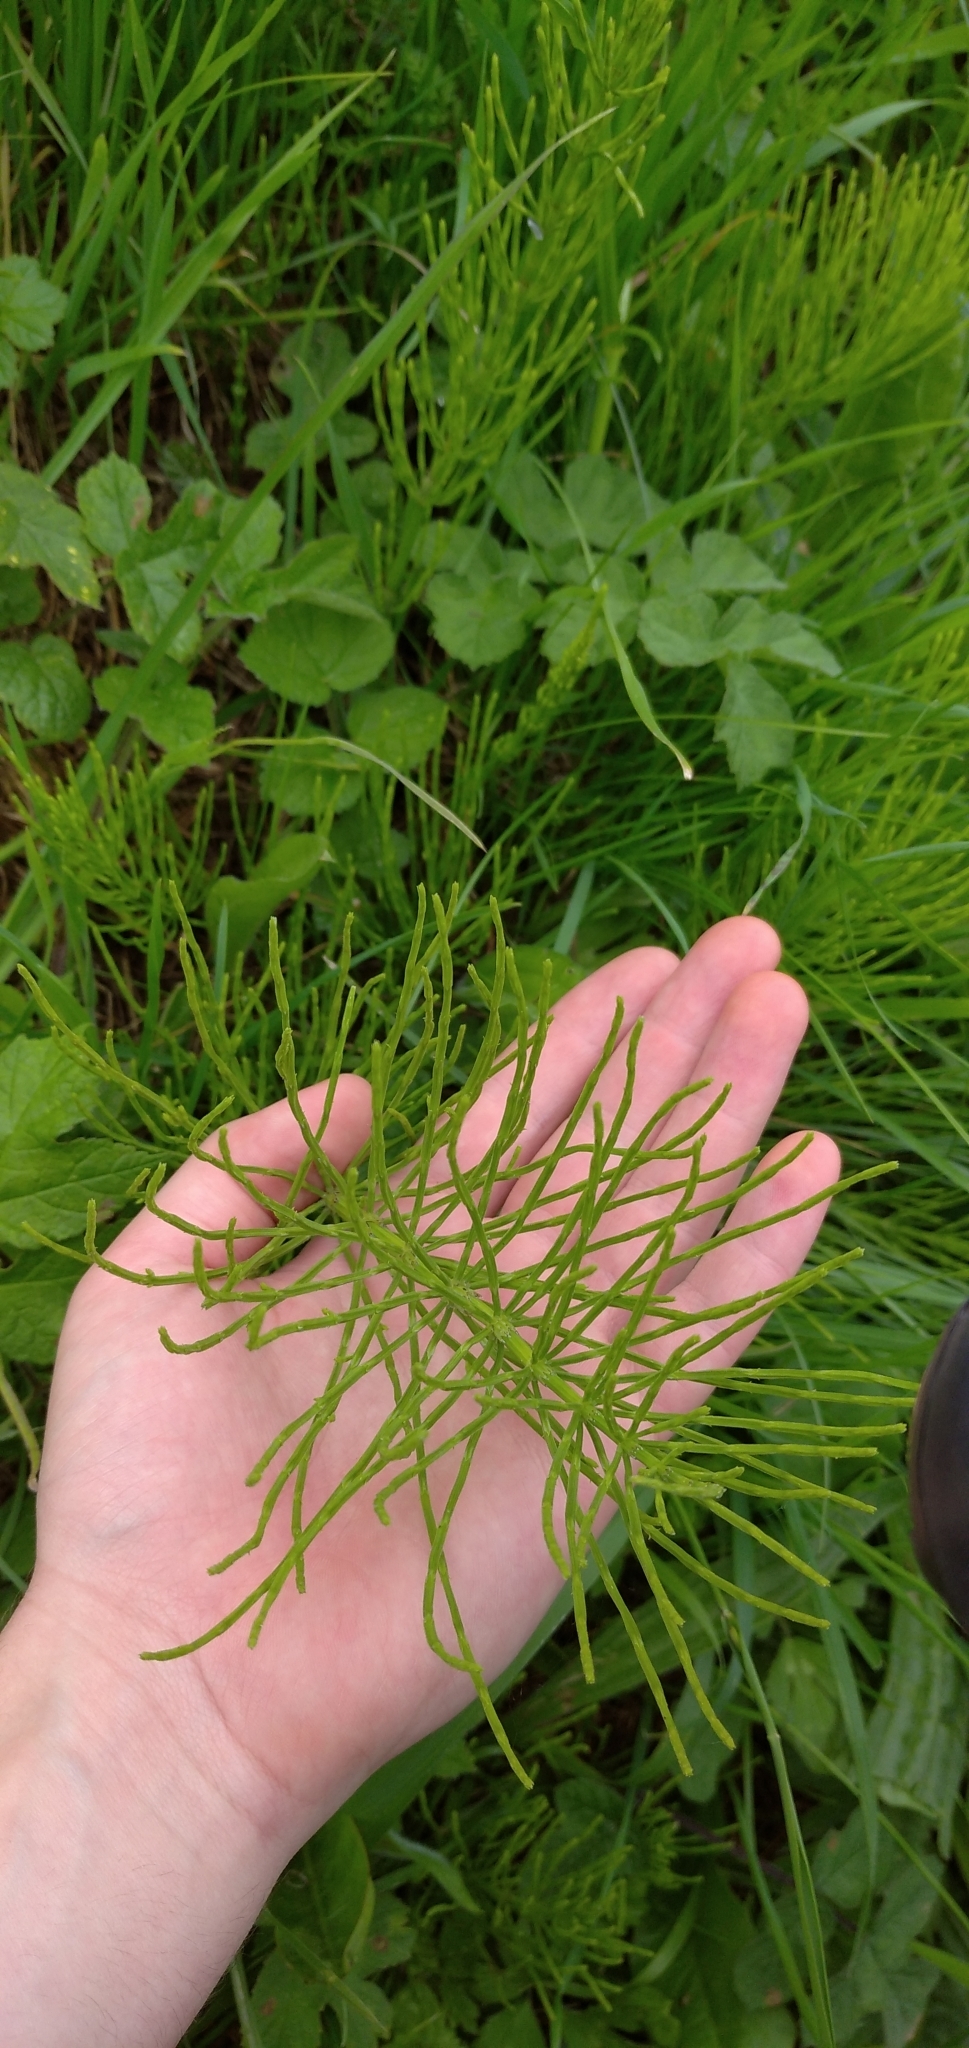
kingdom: Plantae
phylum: Tracheophyta
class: Polypodiopsida
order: Equisetales
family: Equisetaceae
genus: Equisetum
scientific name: Equisetum arvense
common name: Field horsetail
